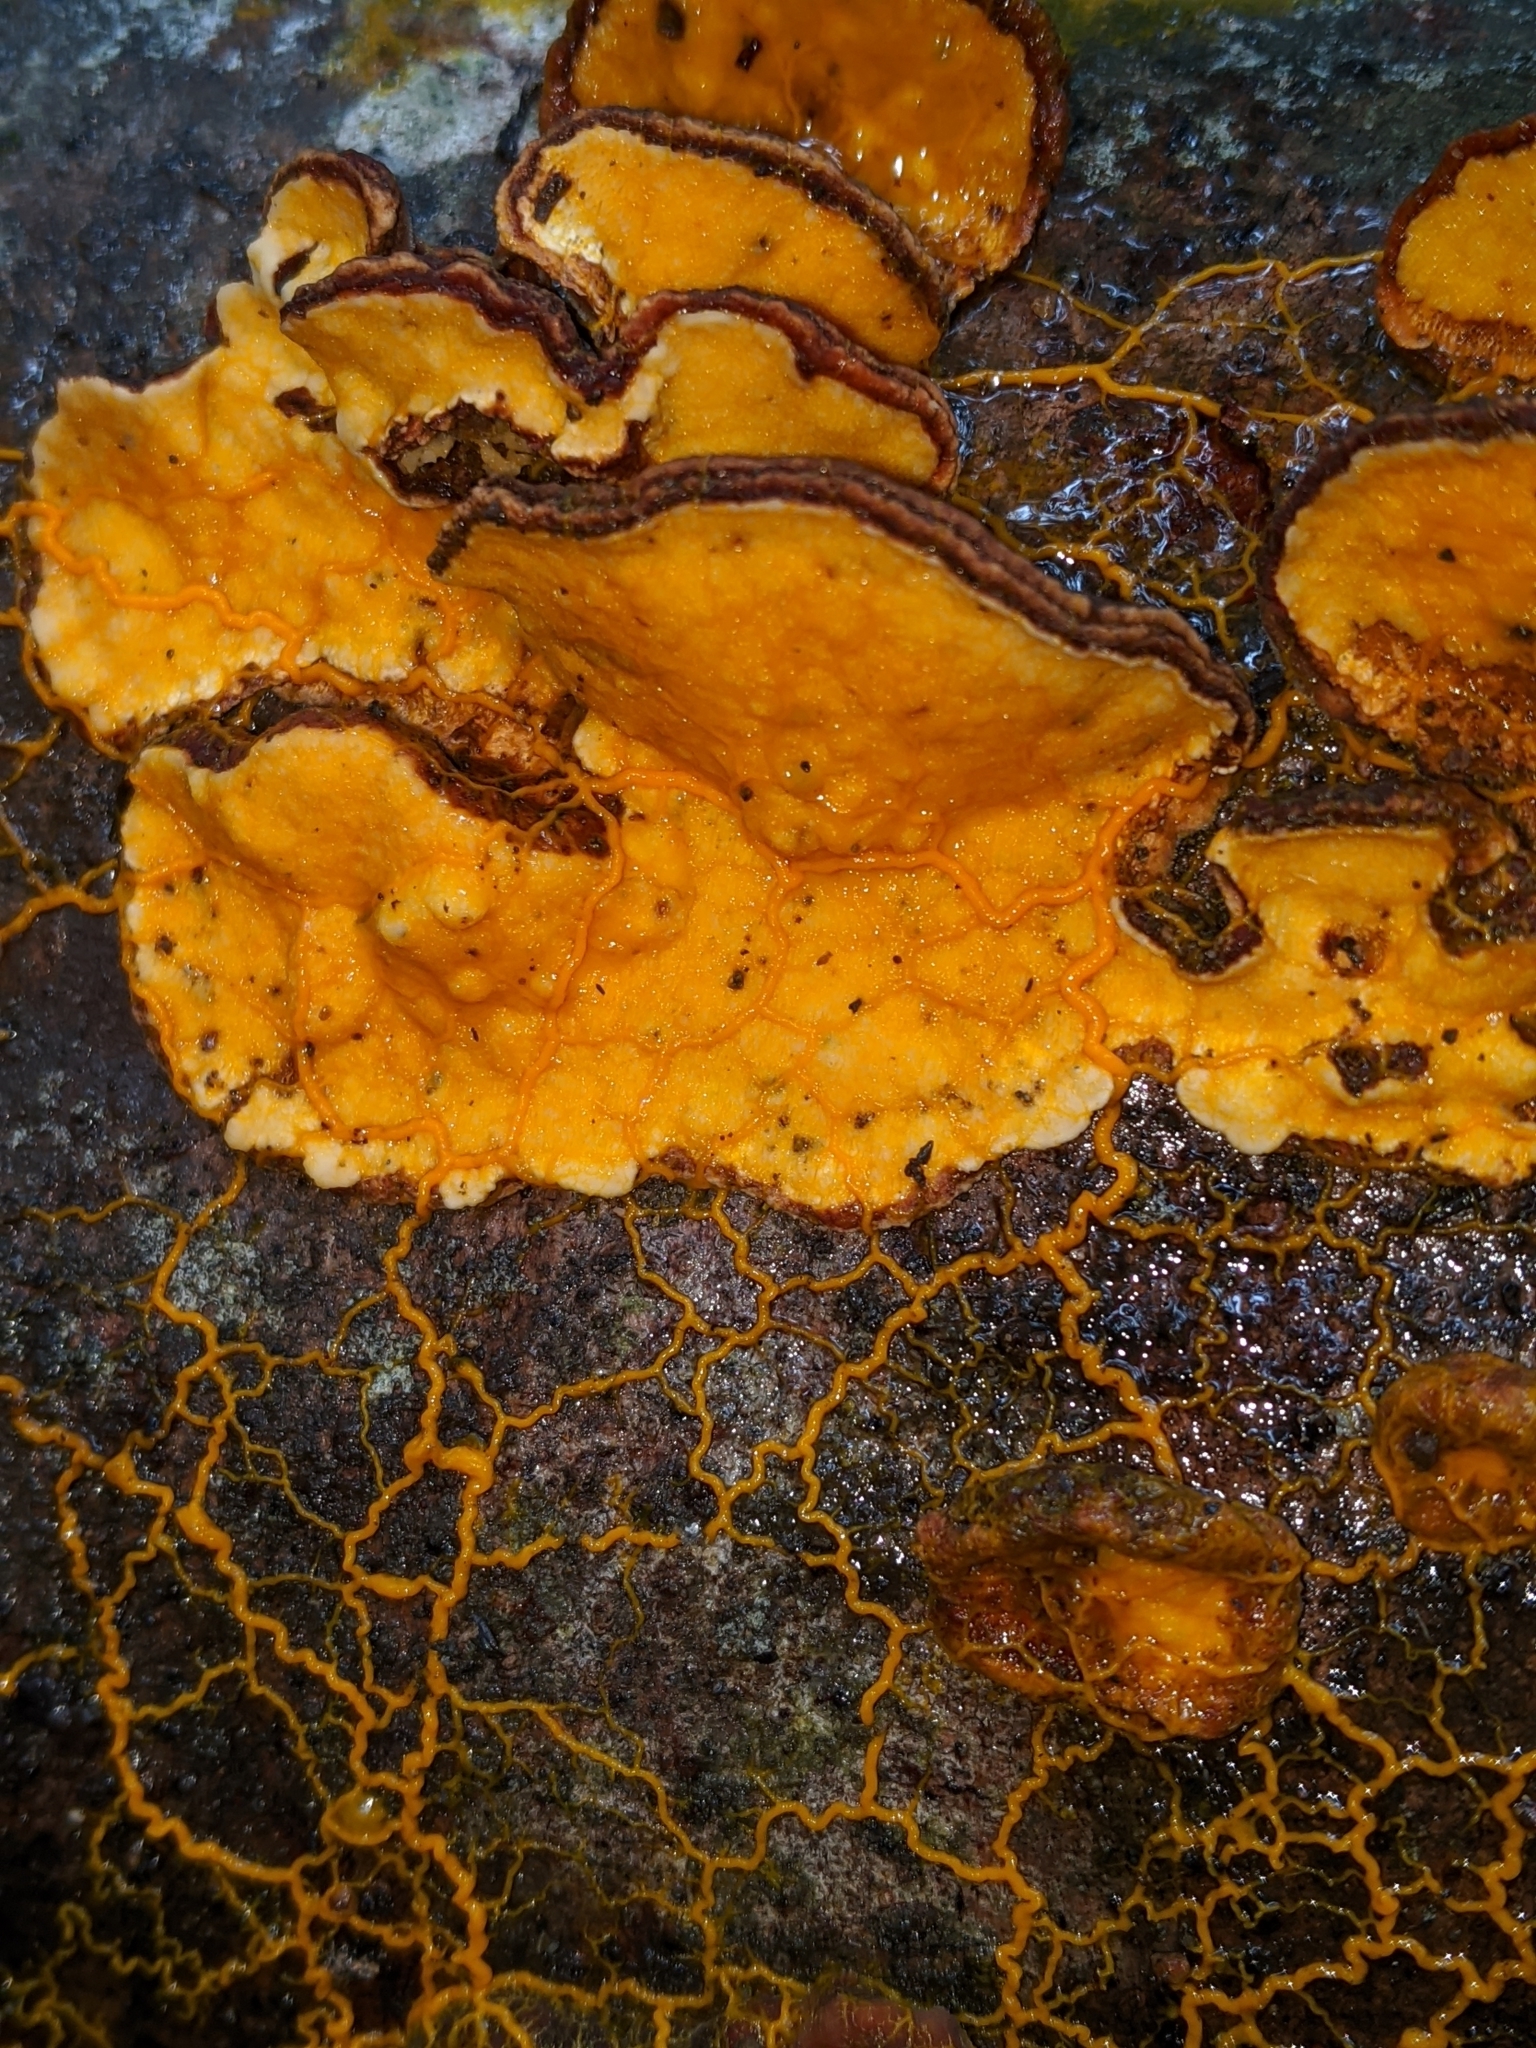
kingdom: Protozoa
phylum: Mycetozoa
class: Myxomycetes
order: Physarales
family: Physaraceae
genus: Badhamia
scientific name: Badhamia utricularis
